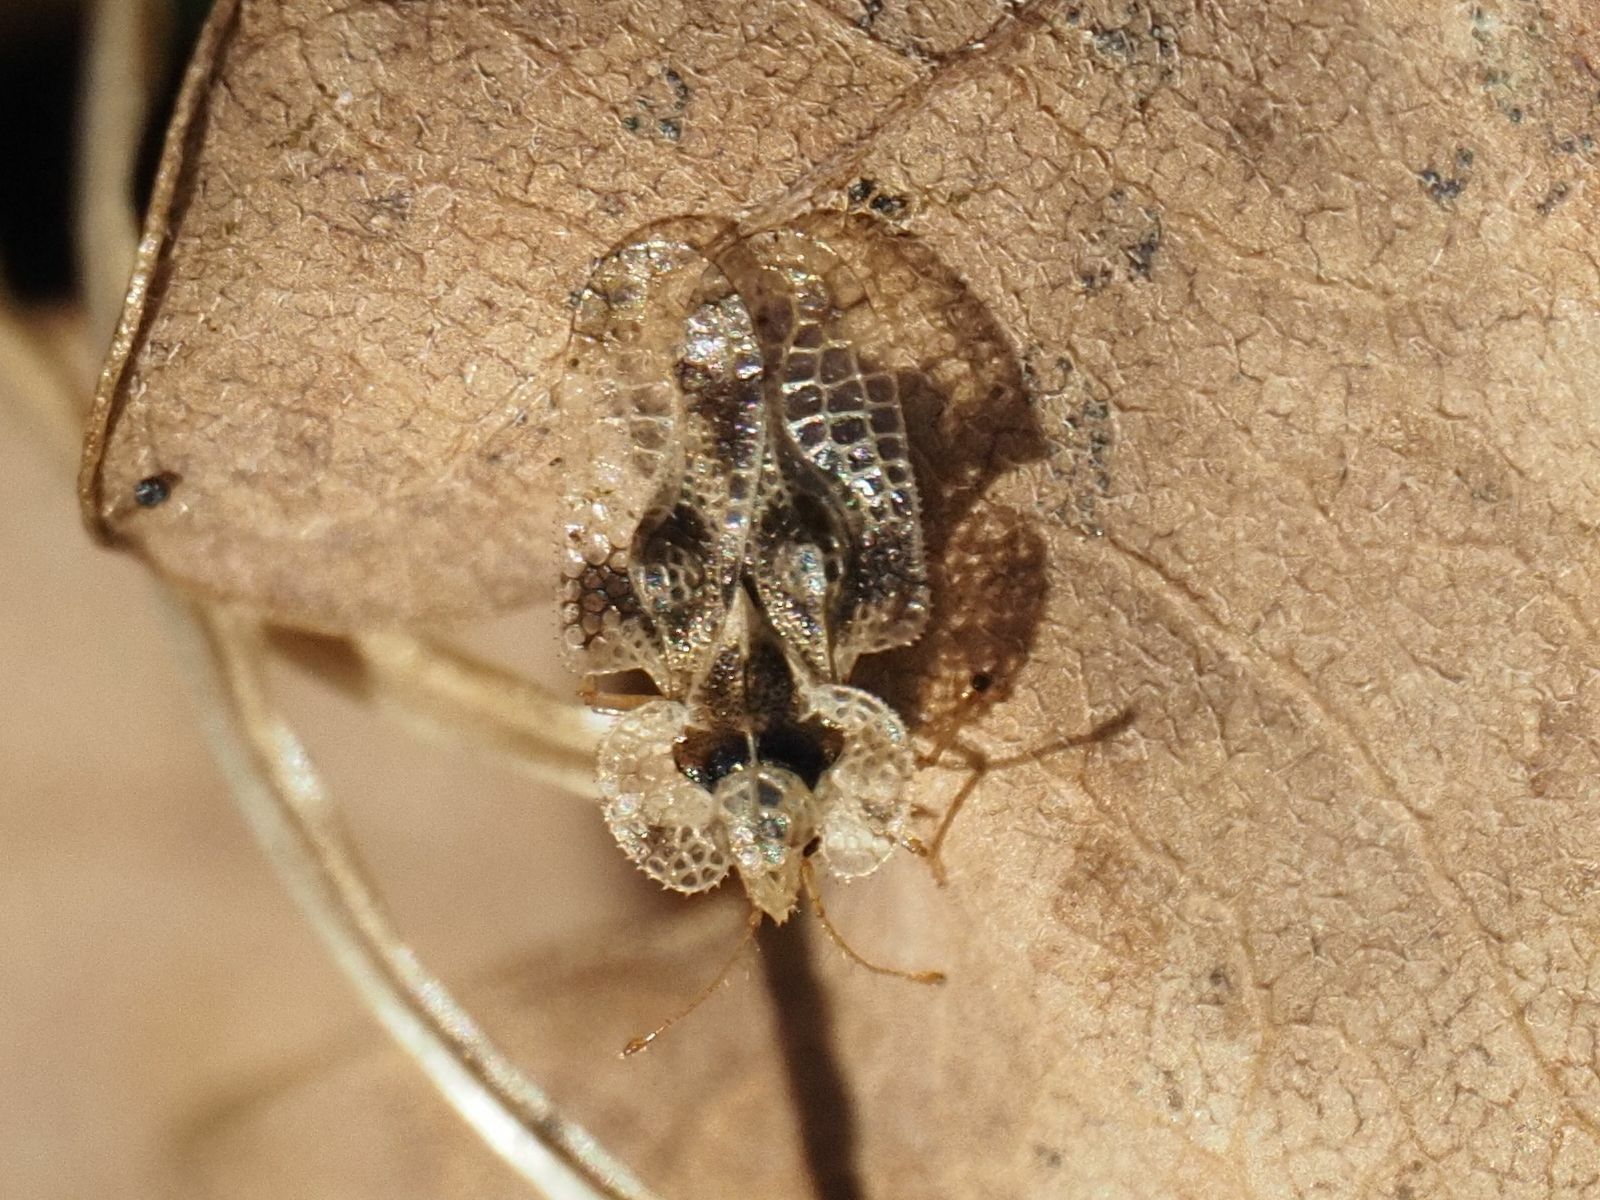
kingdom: Animalia
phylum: Arthropoda
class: Insecta
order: Hemiptera
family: Tingidae
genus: Corythucha
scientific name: Corythucha arcuata
